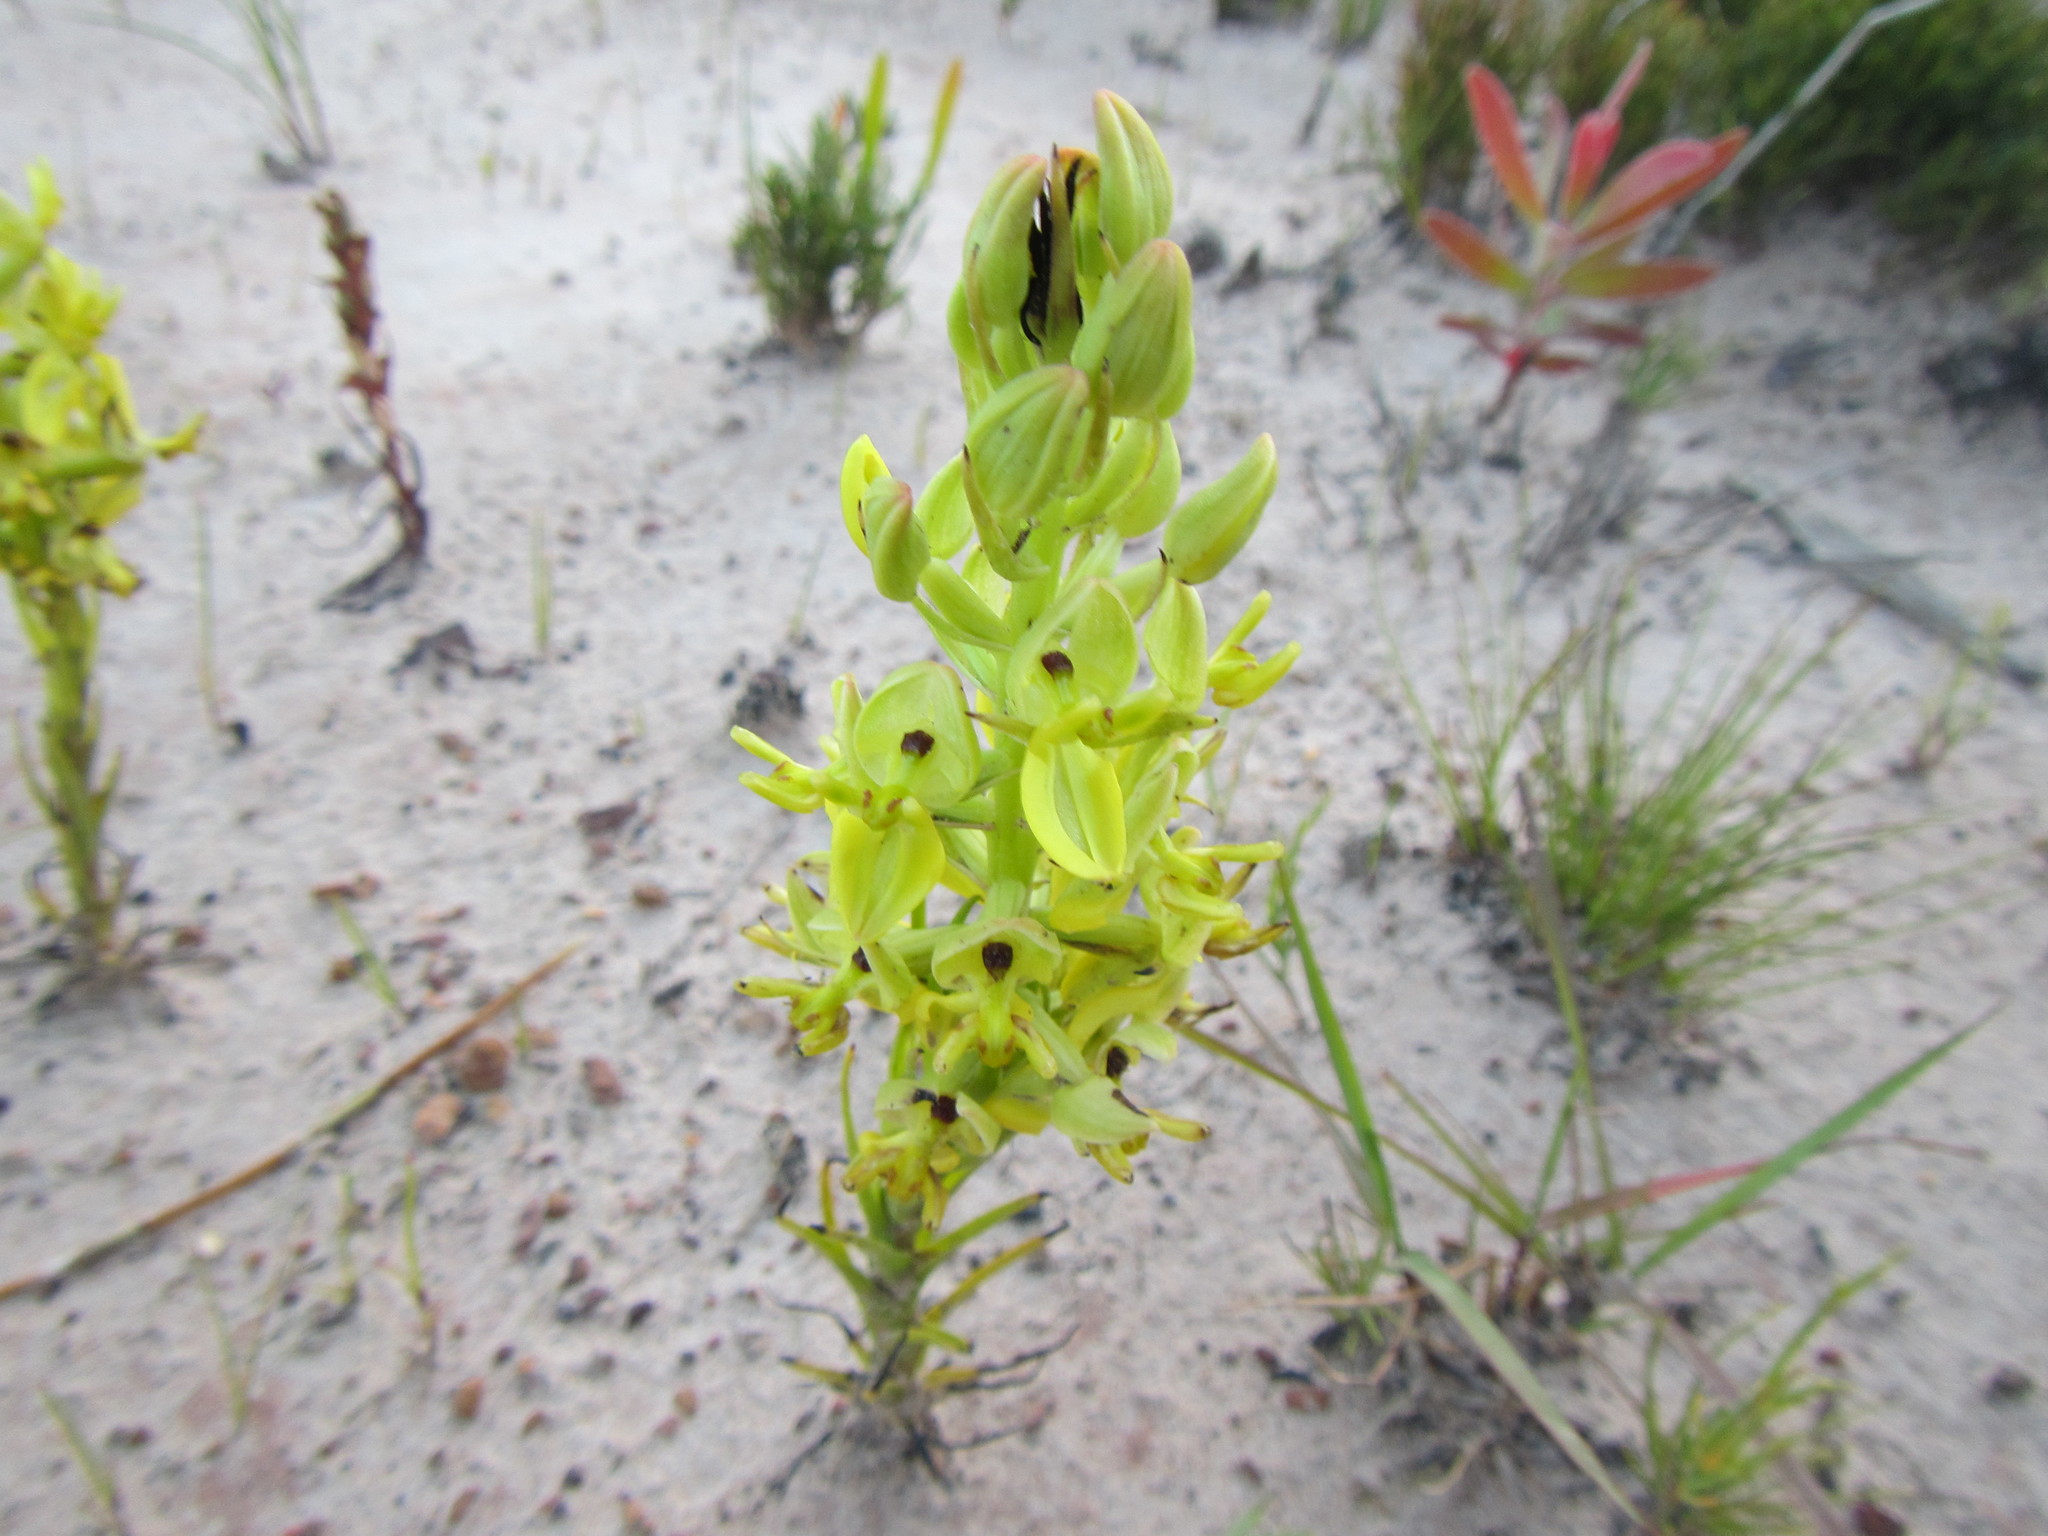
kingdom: Plantae
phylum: Tracheophyta
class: Liliopsida
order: Asparagales
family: Orchidaceae
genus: Ceratandra
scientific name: Ceratandra atrata
